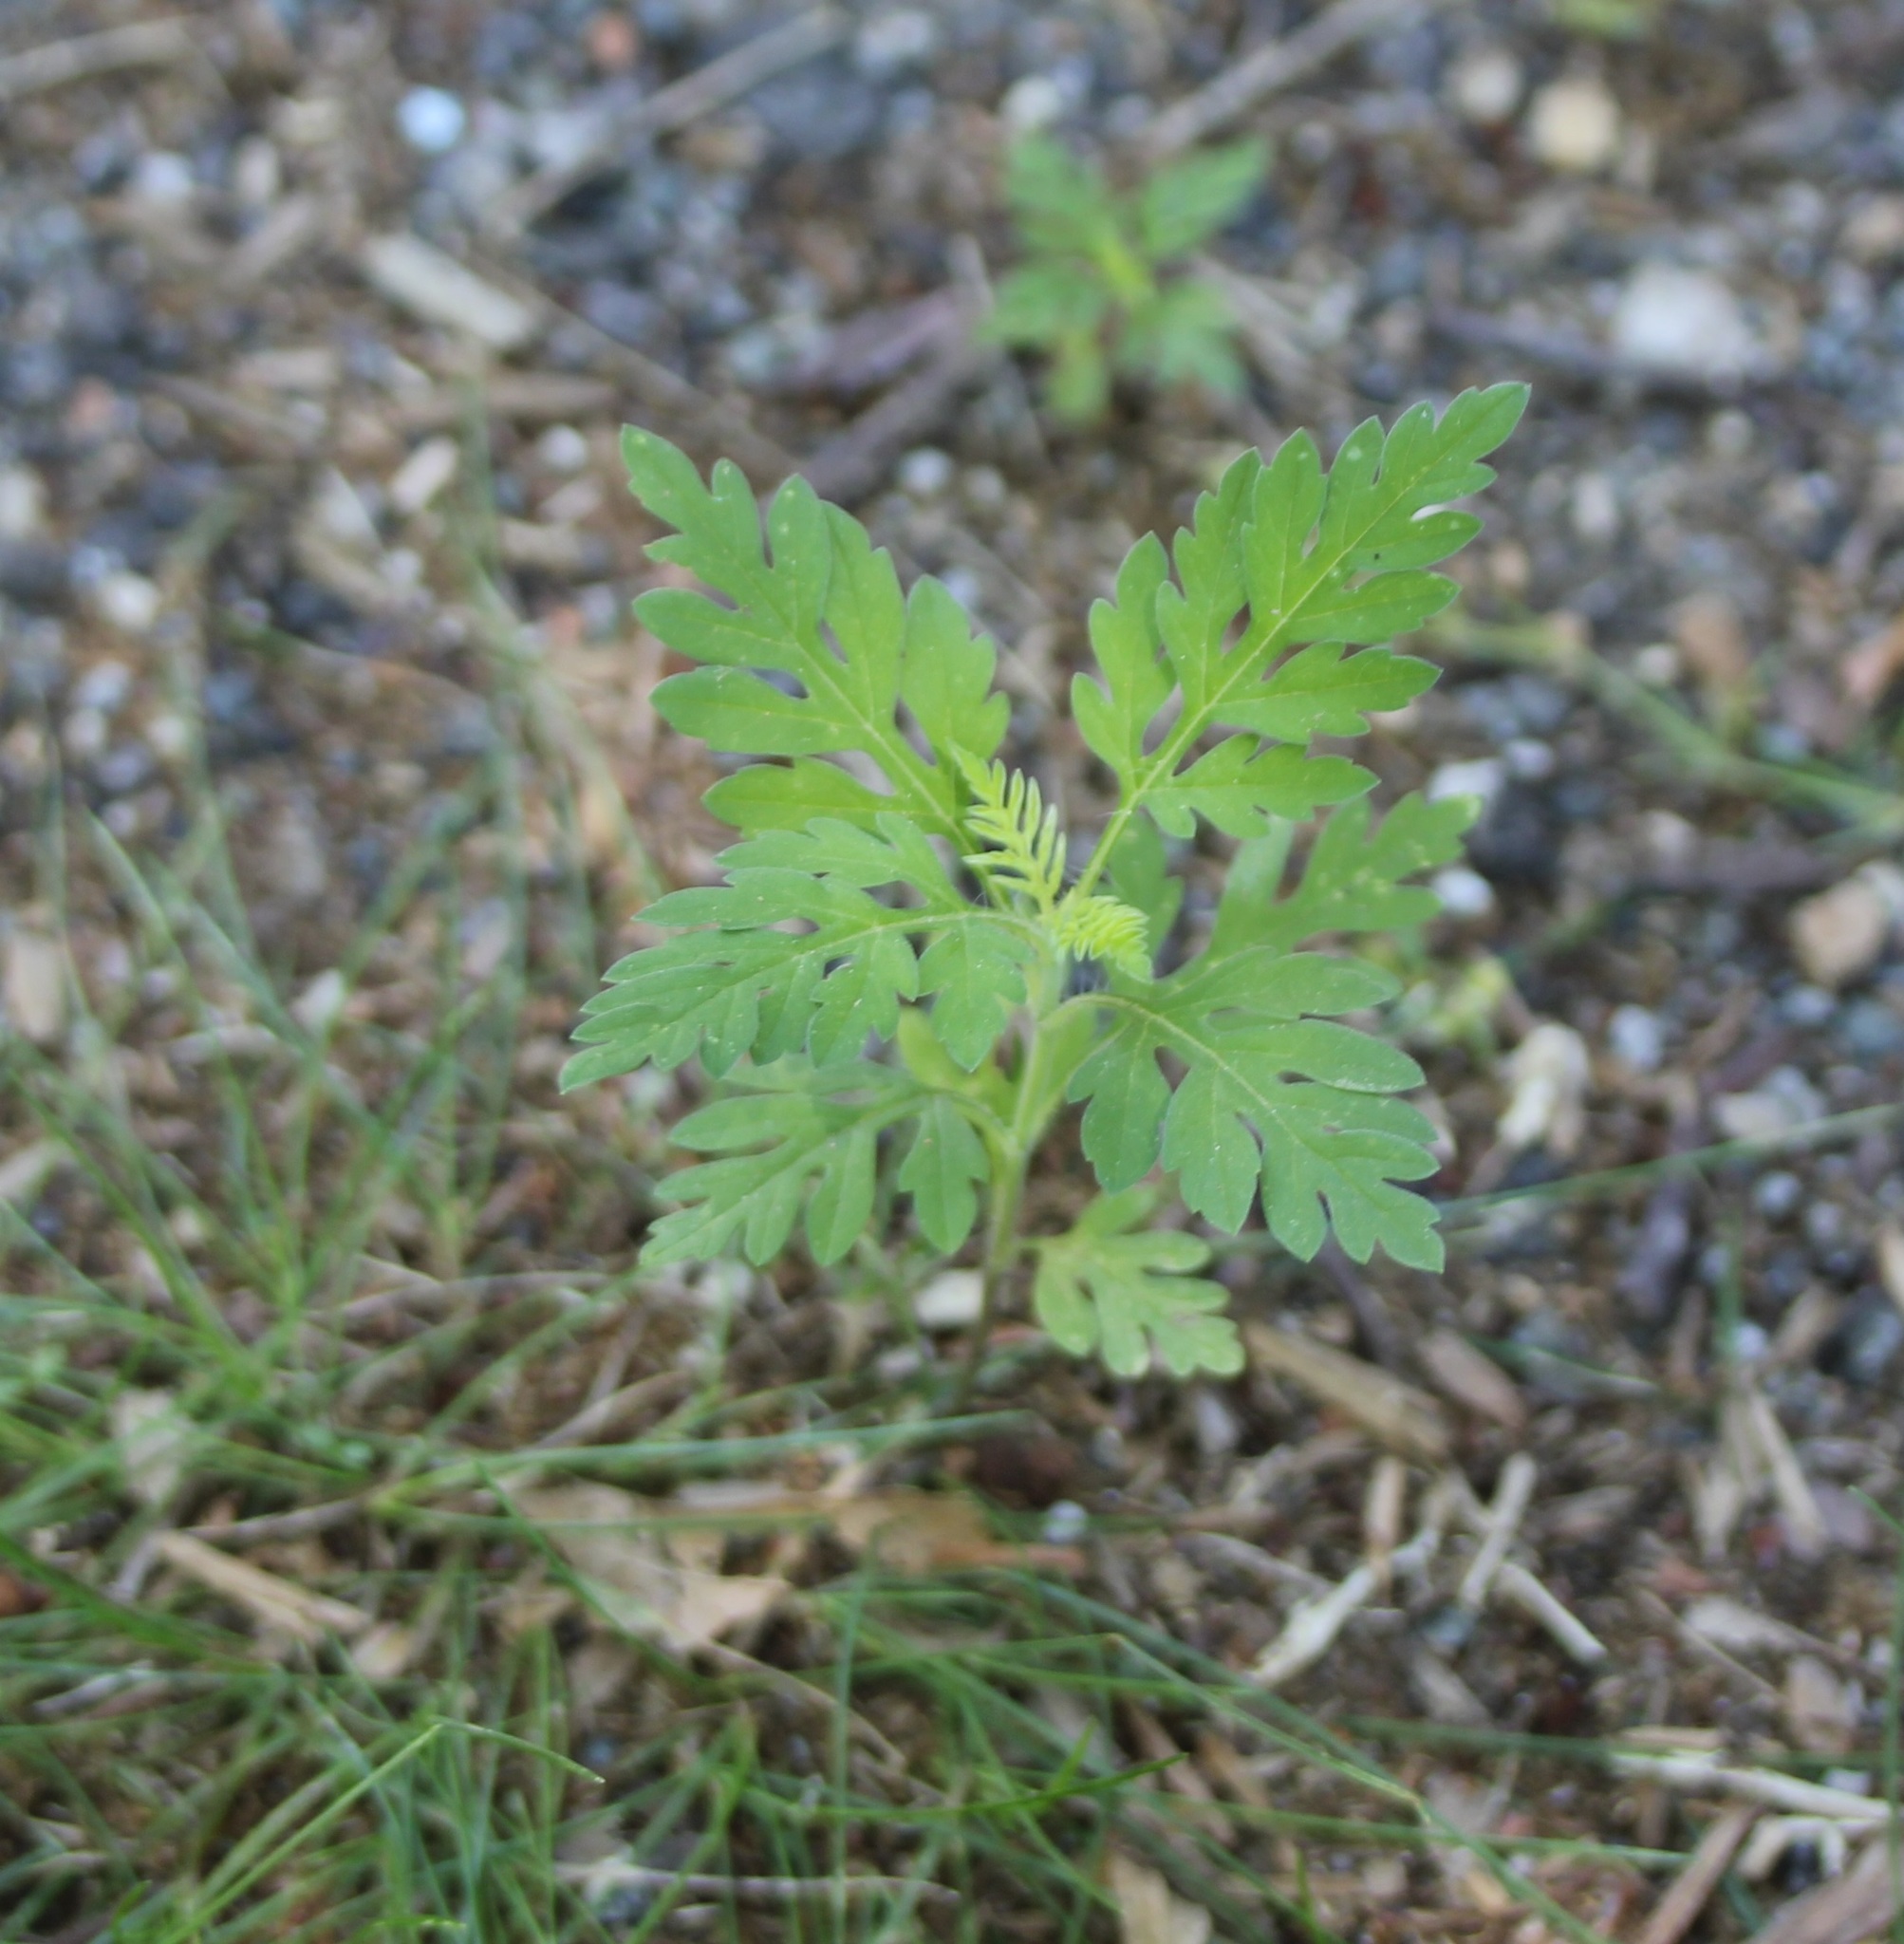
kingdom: Plantae
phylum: Tracheophyta
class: Magnoliopsida
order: Asterales
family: Asteraceae
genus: Ambrosia
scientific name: Ambrosia artemisiifolia
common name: Annual ragweed
